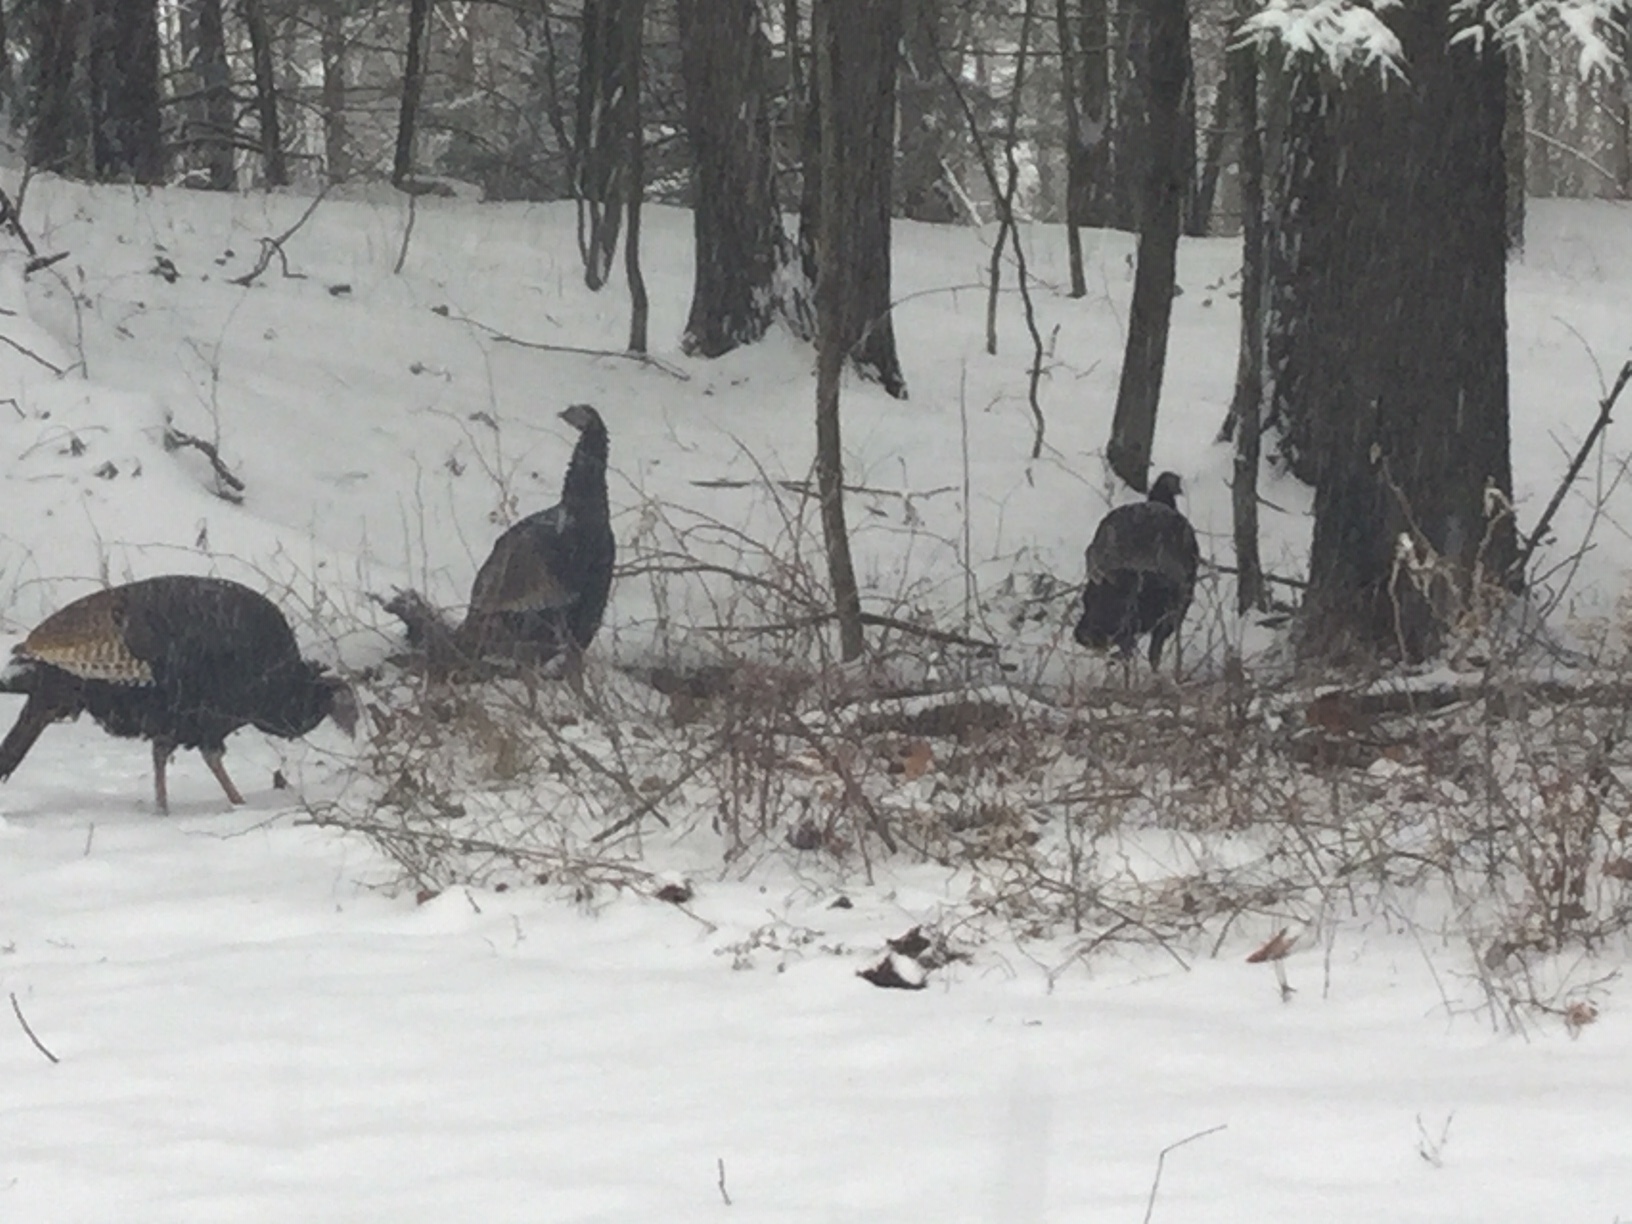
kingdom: Animalia
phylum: Chordata
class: Aves
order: Galliformes
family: Phasianidae
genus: Meleagris
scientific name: Meleagris gallopavo
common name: Wild turkey
